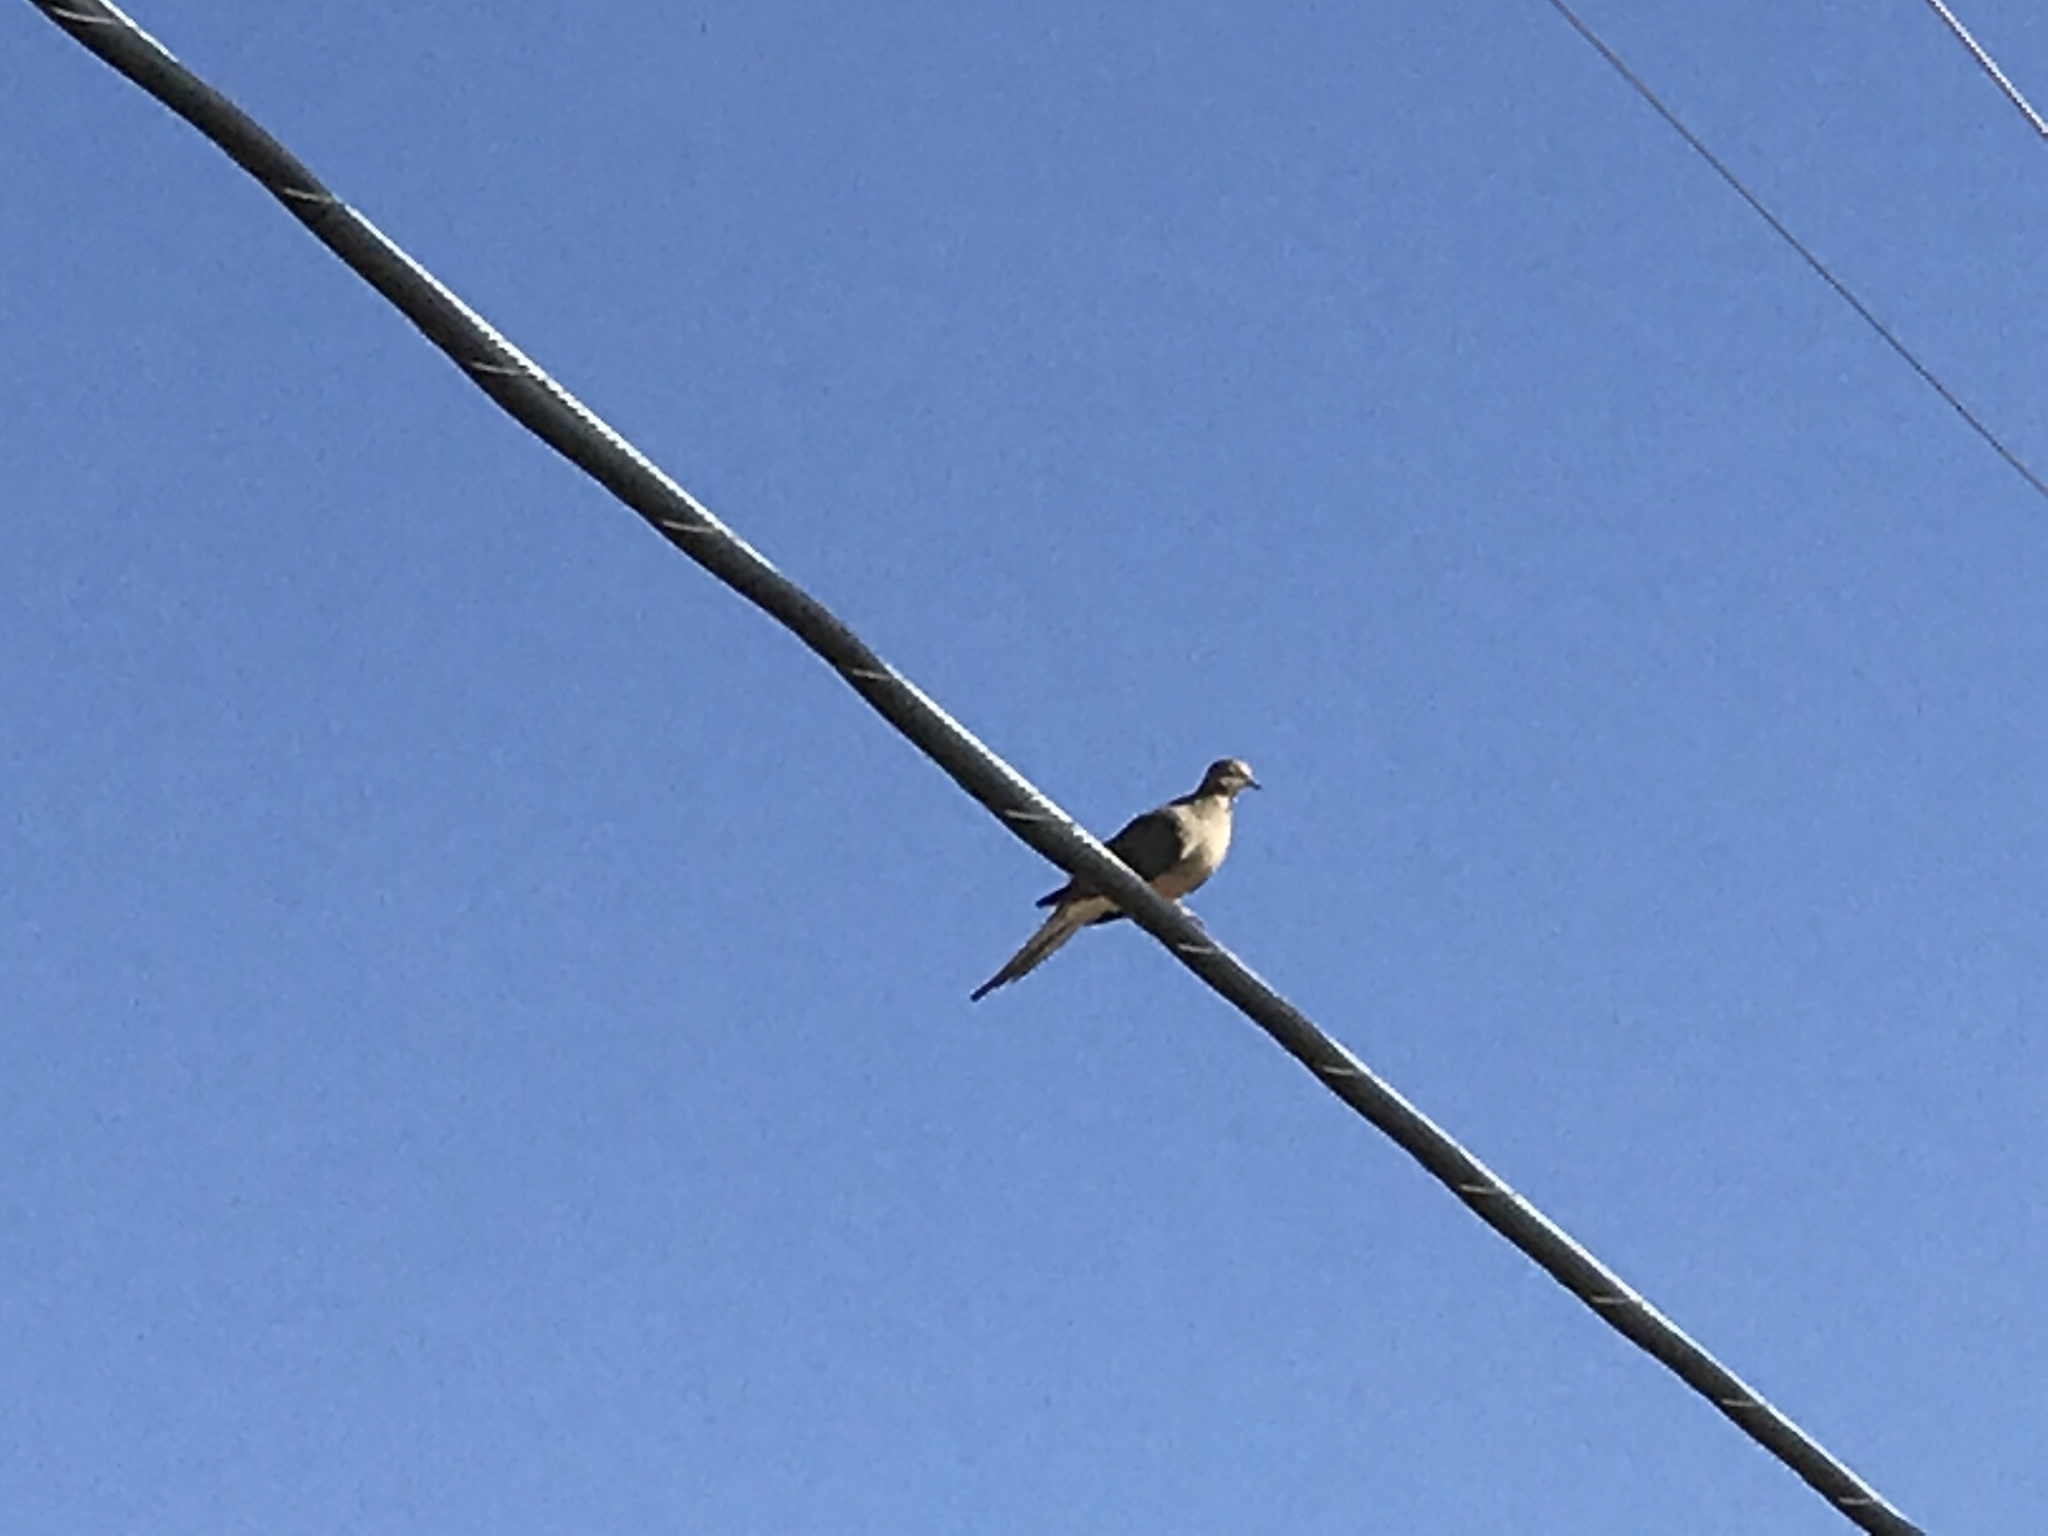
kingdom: Animalia
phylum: Chordata
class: Aves
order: Columbiformes
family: Columbidae
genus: Zenaida
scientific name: Zenaida macroura
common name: Mourning dove
